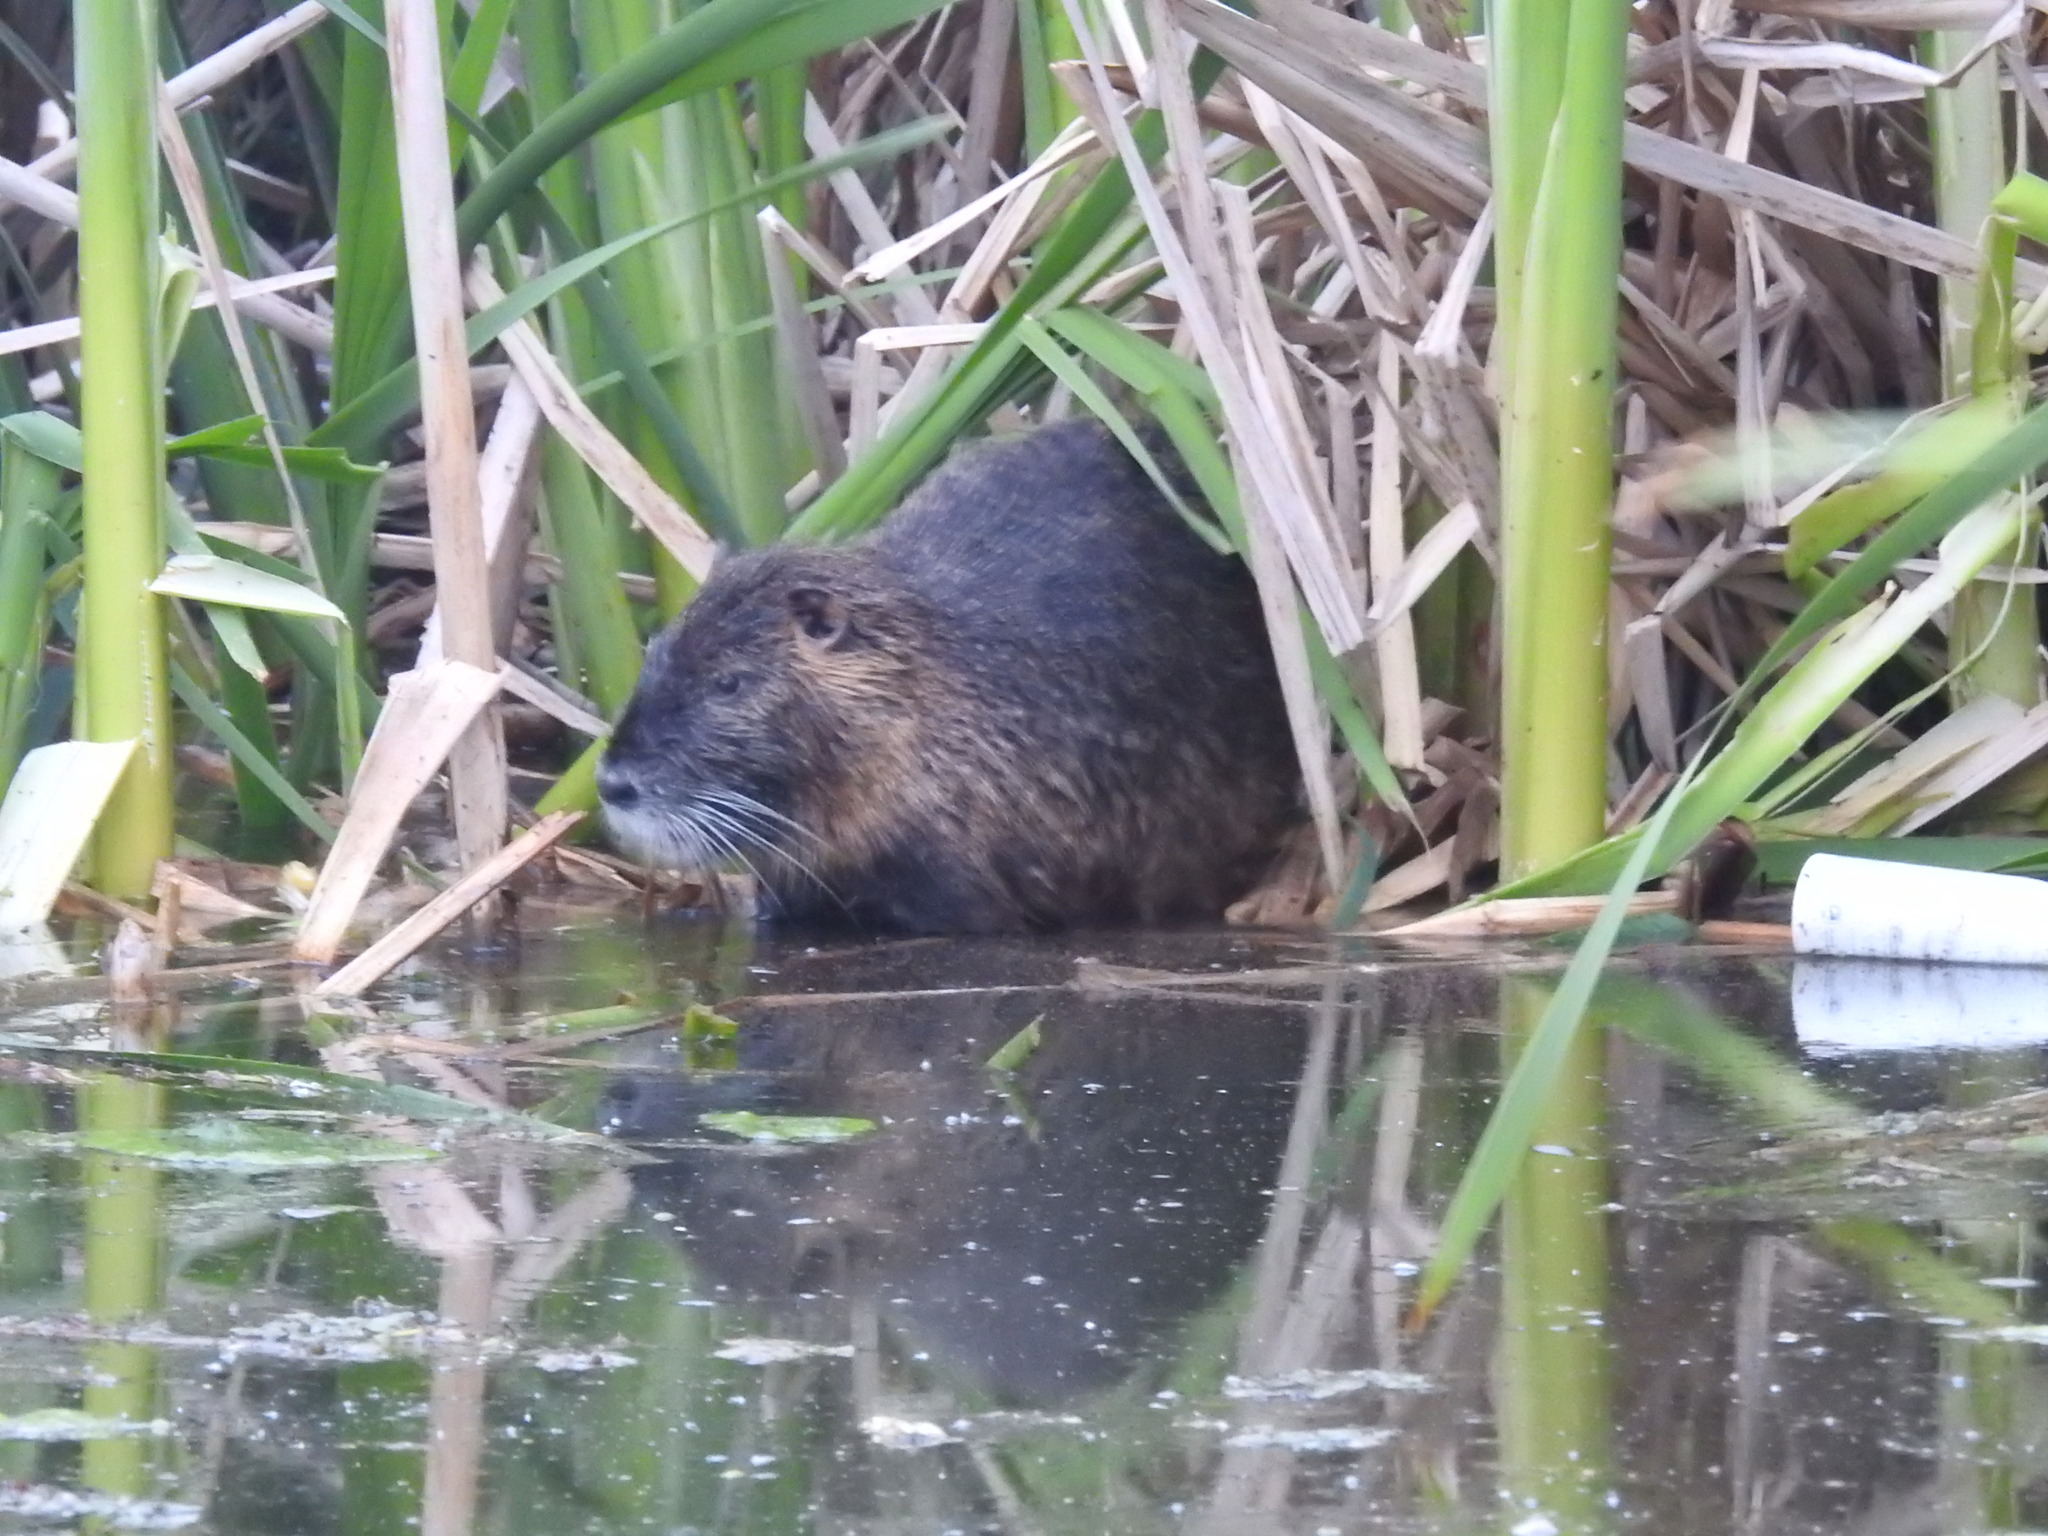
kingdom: Animalia
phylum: Chordata
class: Mammalia
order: Rodentia
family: Myocastoridae
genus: Myocastor
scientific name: Myocastor coypus
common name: Coypu
